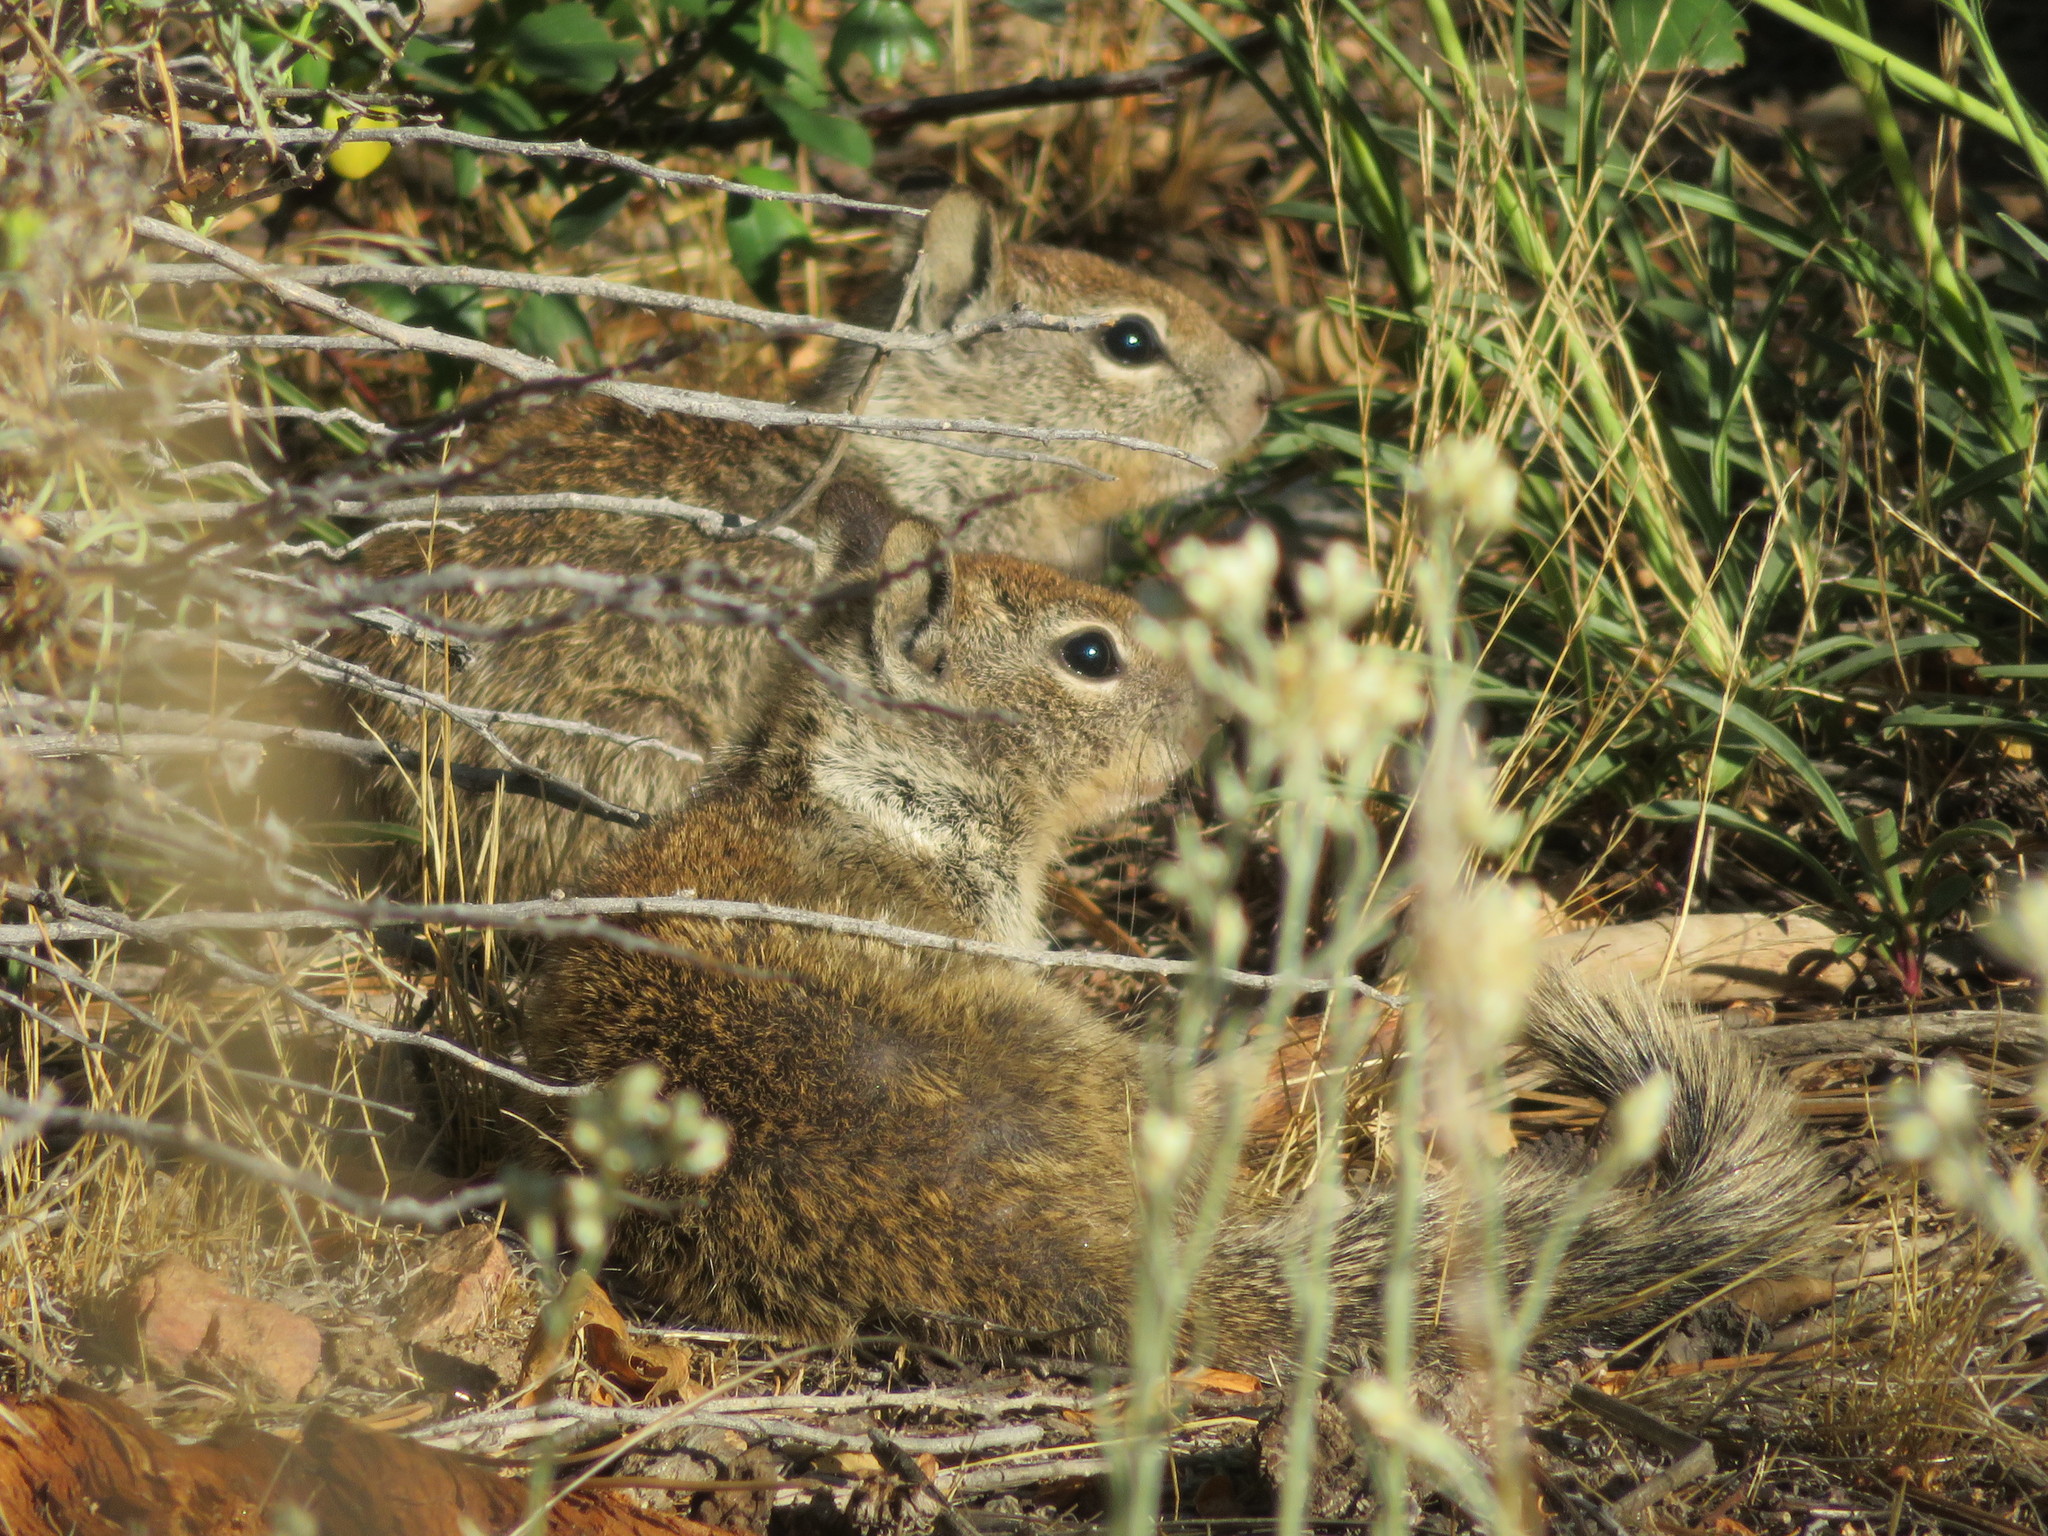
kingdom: Animalia
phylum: Chordata
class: Mammalia
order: Rodentia
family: Sciuridae
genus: Otospermophilus
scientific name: Otospermophilus beecheyi
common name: California ground squirrel
